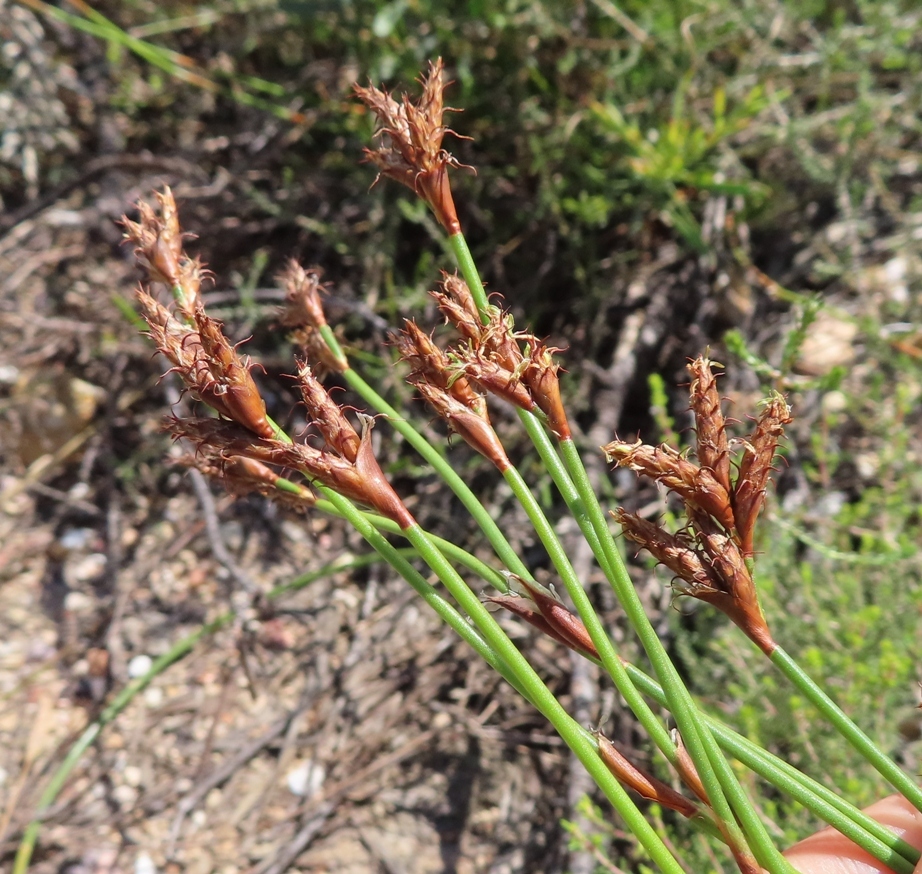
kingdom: Plantae
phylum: Tracheophyta
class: Liliopsida
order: Poales
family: Restionaceae
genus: Restio
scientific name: Restio capensis
